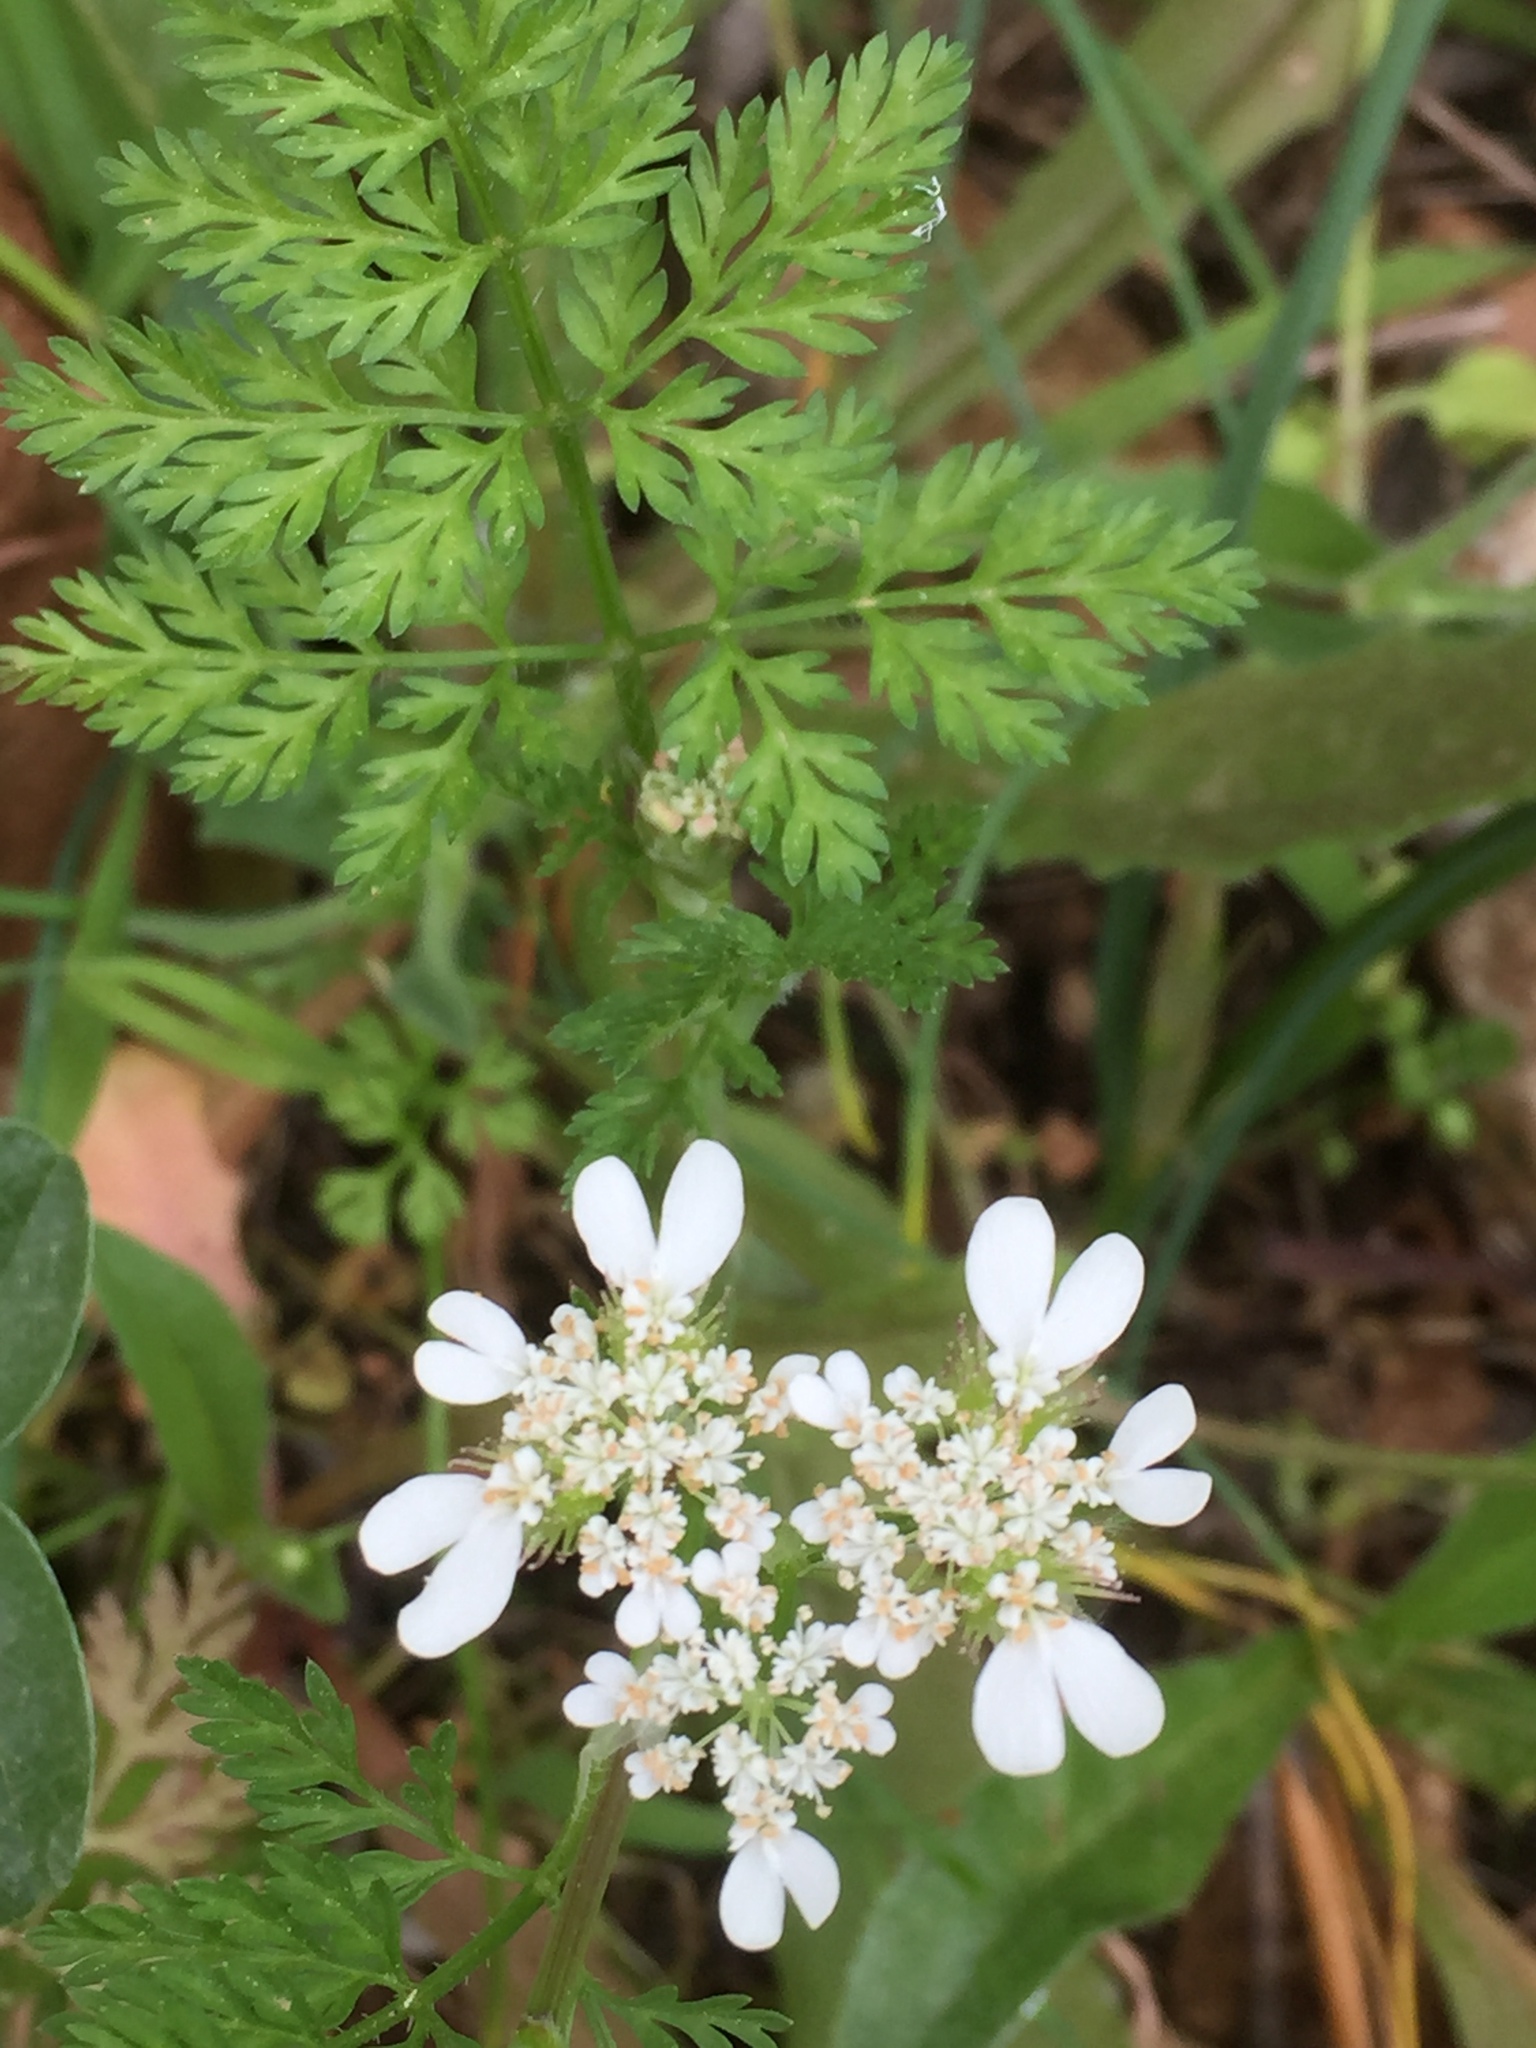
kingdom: Plantae
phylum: Tracheophyta
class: Magnoliopsida
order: Apiales
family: Apiaceae
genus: Scandix
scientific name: Scandix pecten-veneris
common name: Shepherd's-needle
